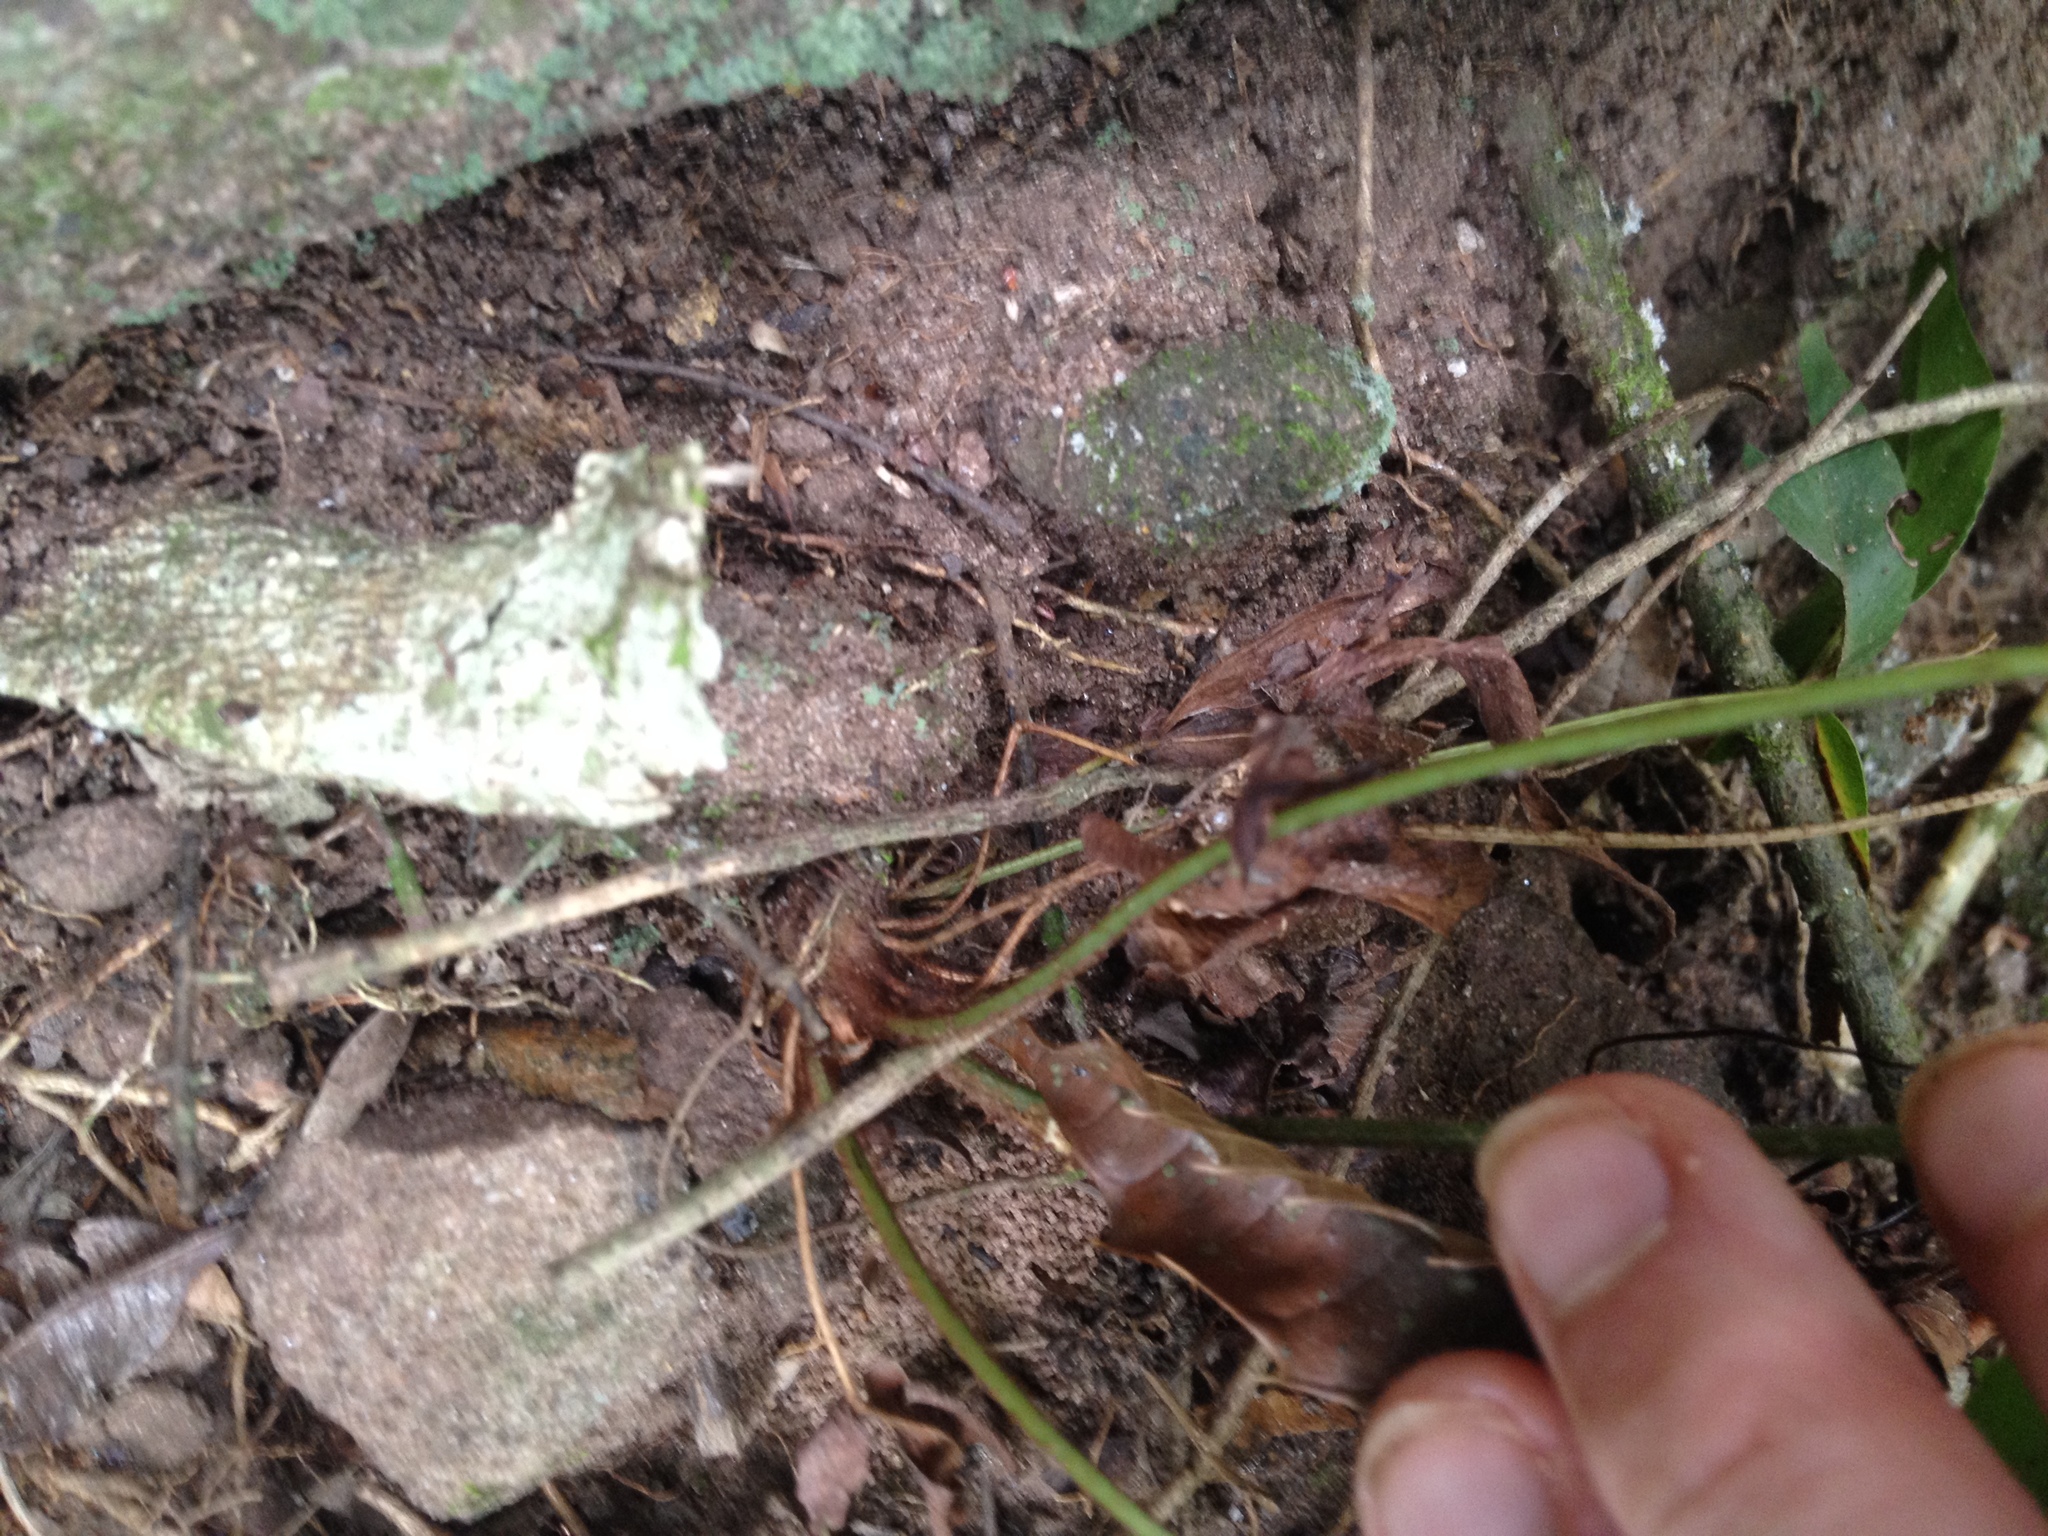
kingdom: Plantae
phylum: Tracheophyta
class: Polypodiopsida
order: Schizaeales
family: Anemiaceae
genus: Anemia
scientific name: Anemia phyllitidis
